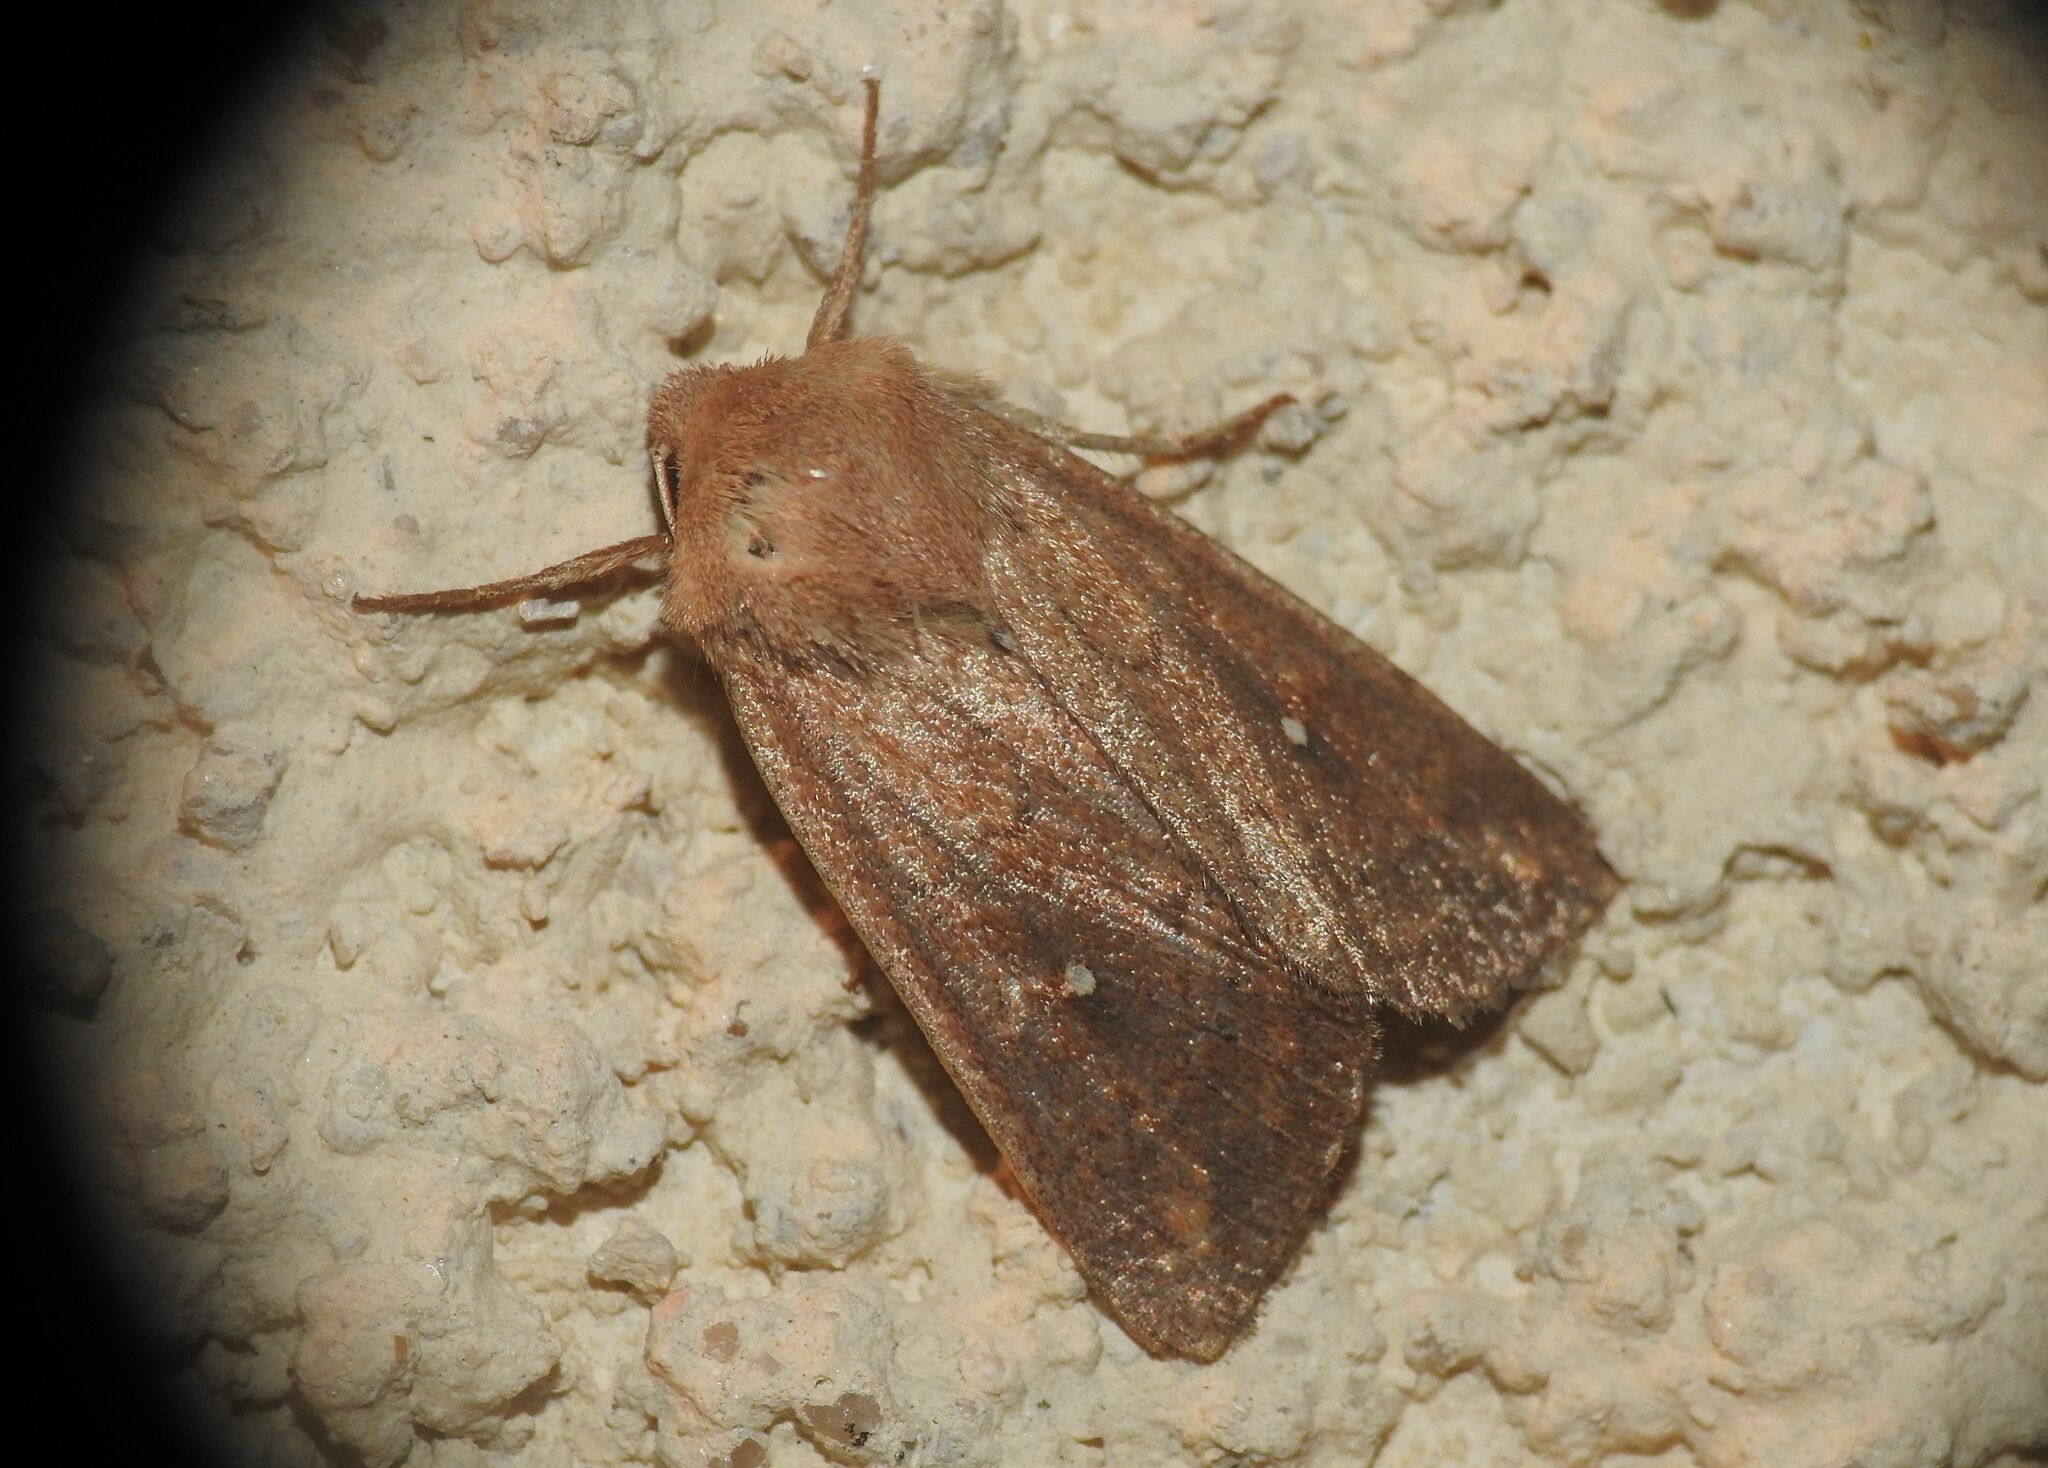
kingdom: Animalia
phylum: Arthropoda
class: Insecta
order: Lepidoptera
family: Noctuidae
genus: Mythimna
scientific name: Mythimna albipuncta
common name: White-point
